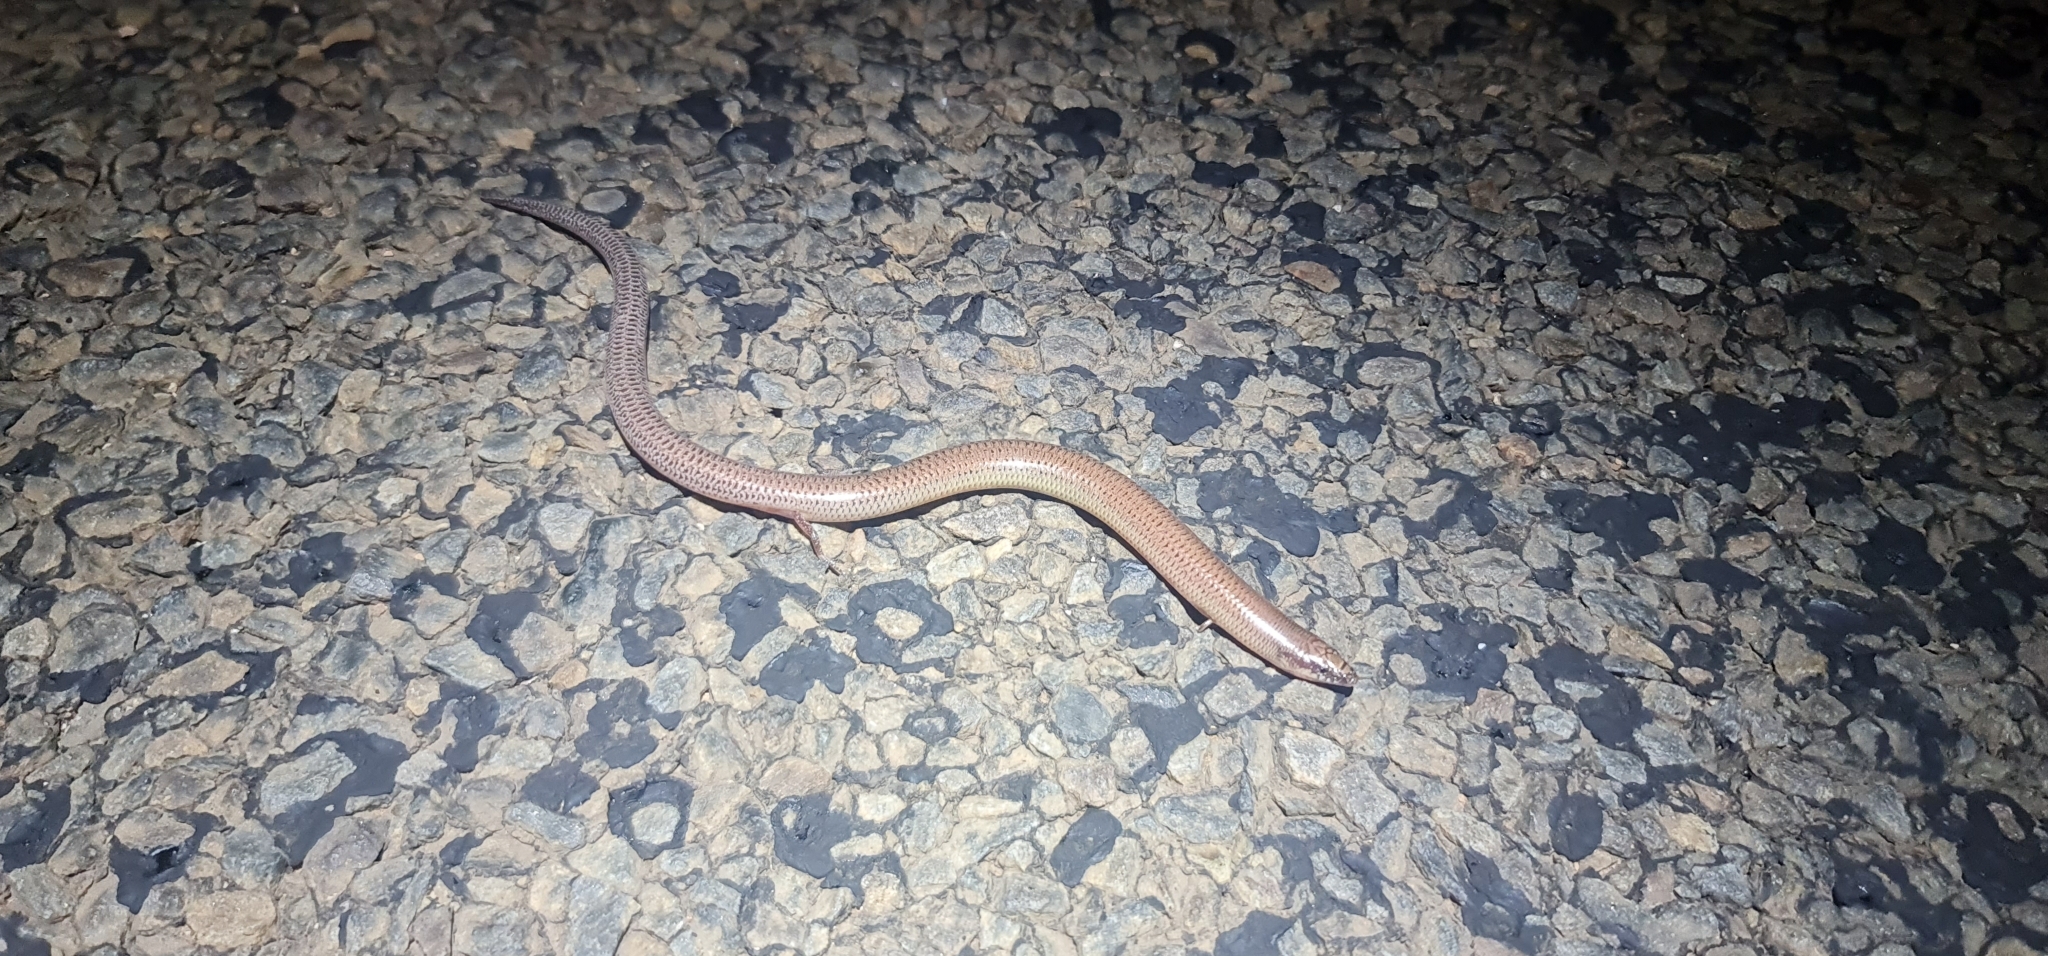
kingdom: Animalia
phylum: Chordata
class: Squamata
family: Scincidae
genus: Lerista
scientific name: Lerista punctatovittata
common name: Eastern robust slider
